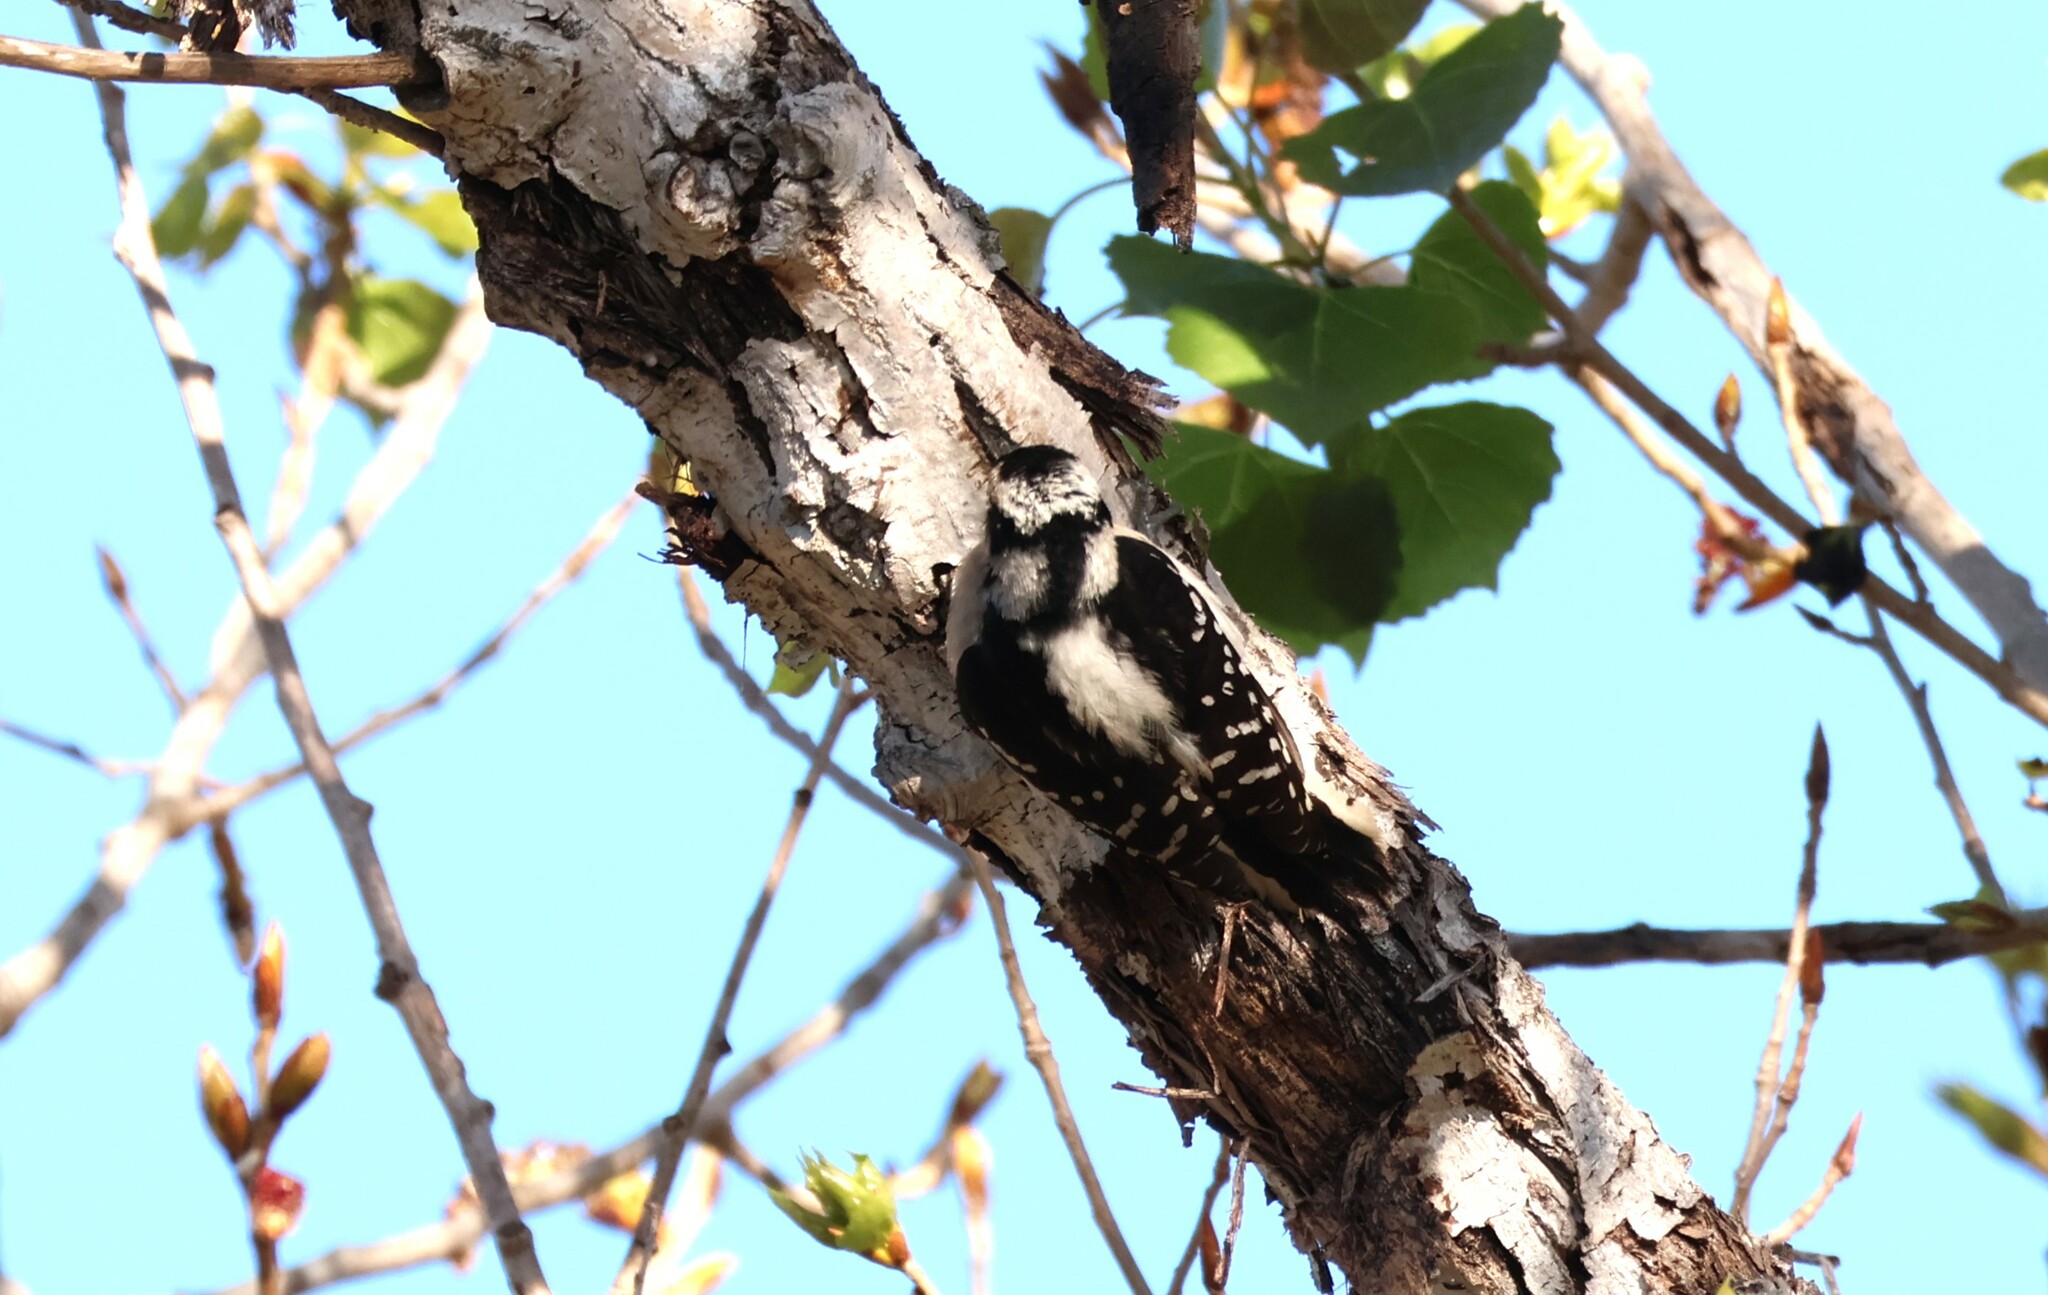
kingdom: Animalia
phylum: Chordata
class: Aves
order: Piciformes
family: Picidae
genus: Dryobates
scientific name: Dryobates pubescens
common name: Downy woodpecker
